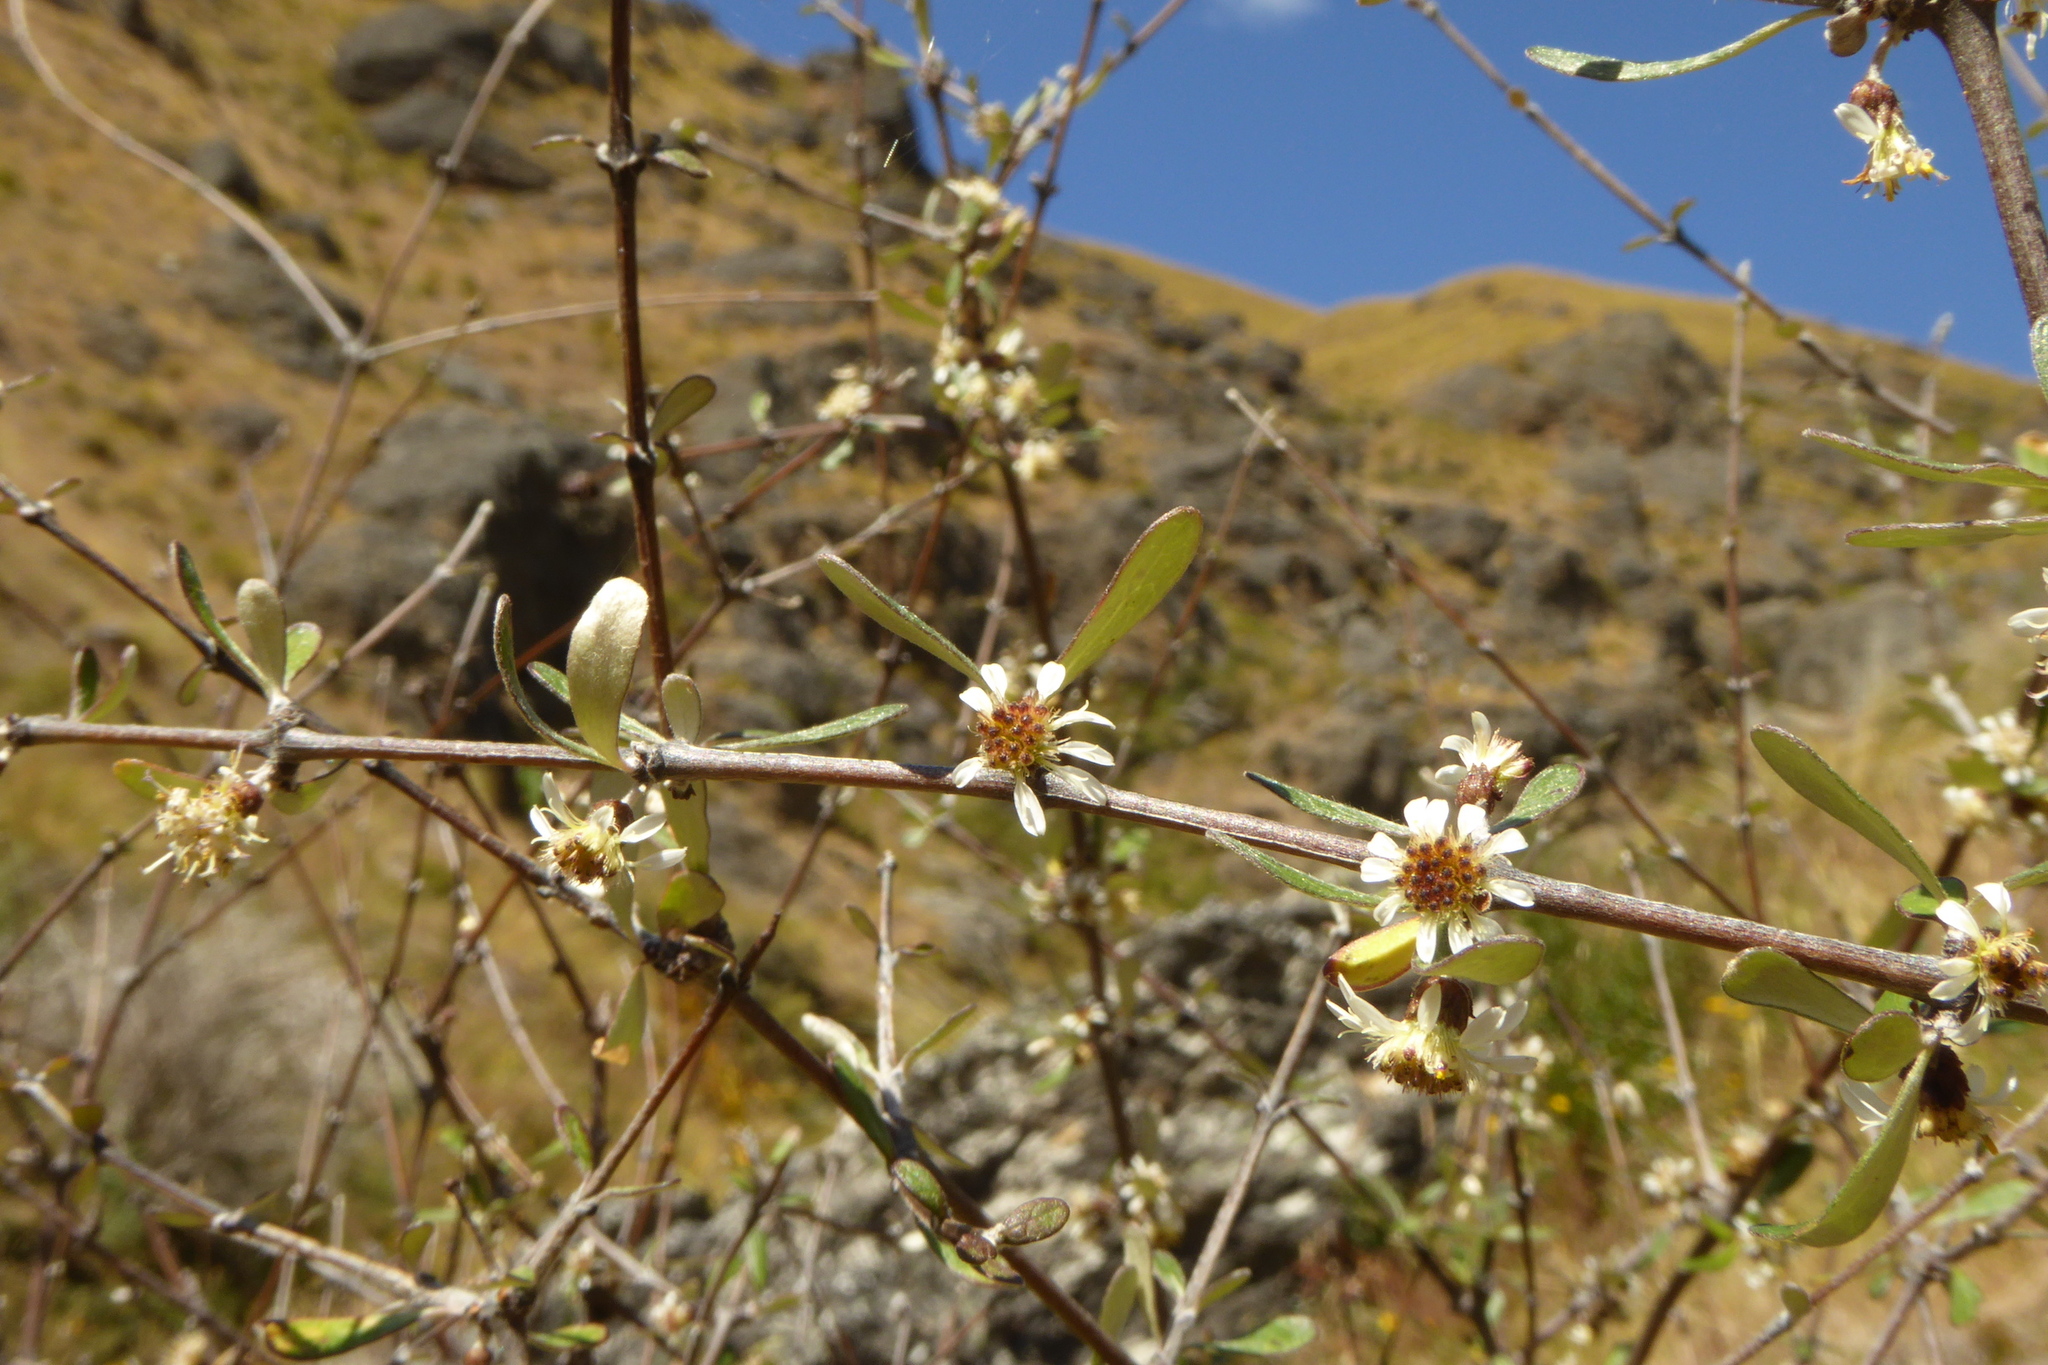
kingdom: Plantae
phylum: Tracheophyta
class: Magnoliopsida
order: Asterales
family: Asteraceae
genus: Olearia
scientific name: Olearia odorata
